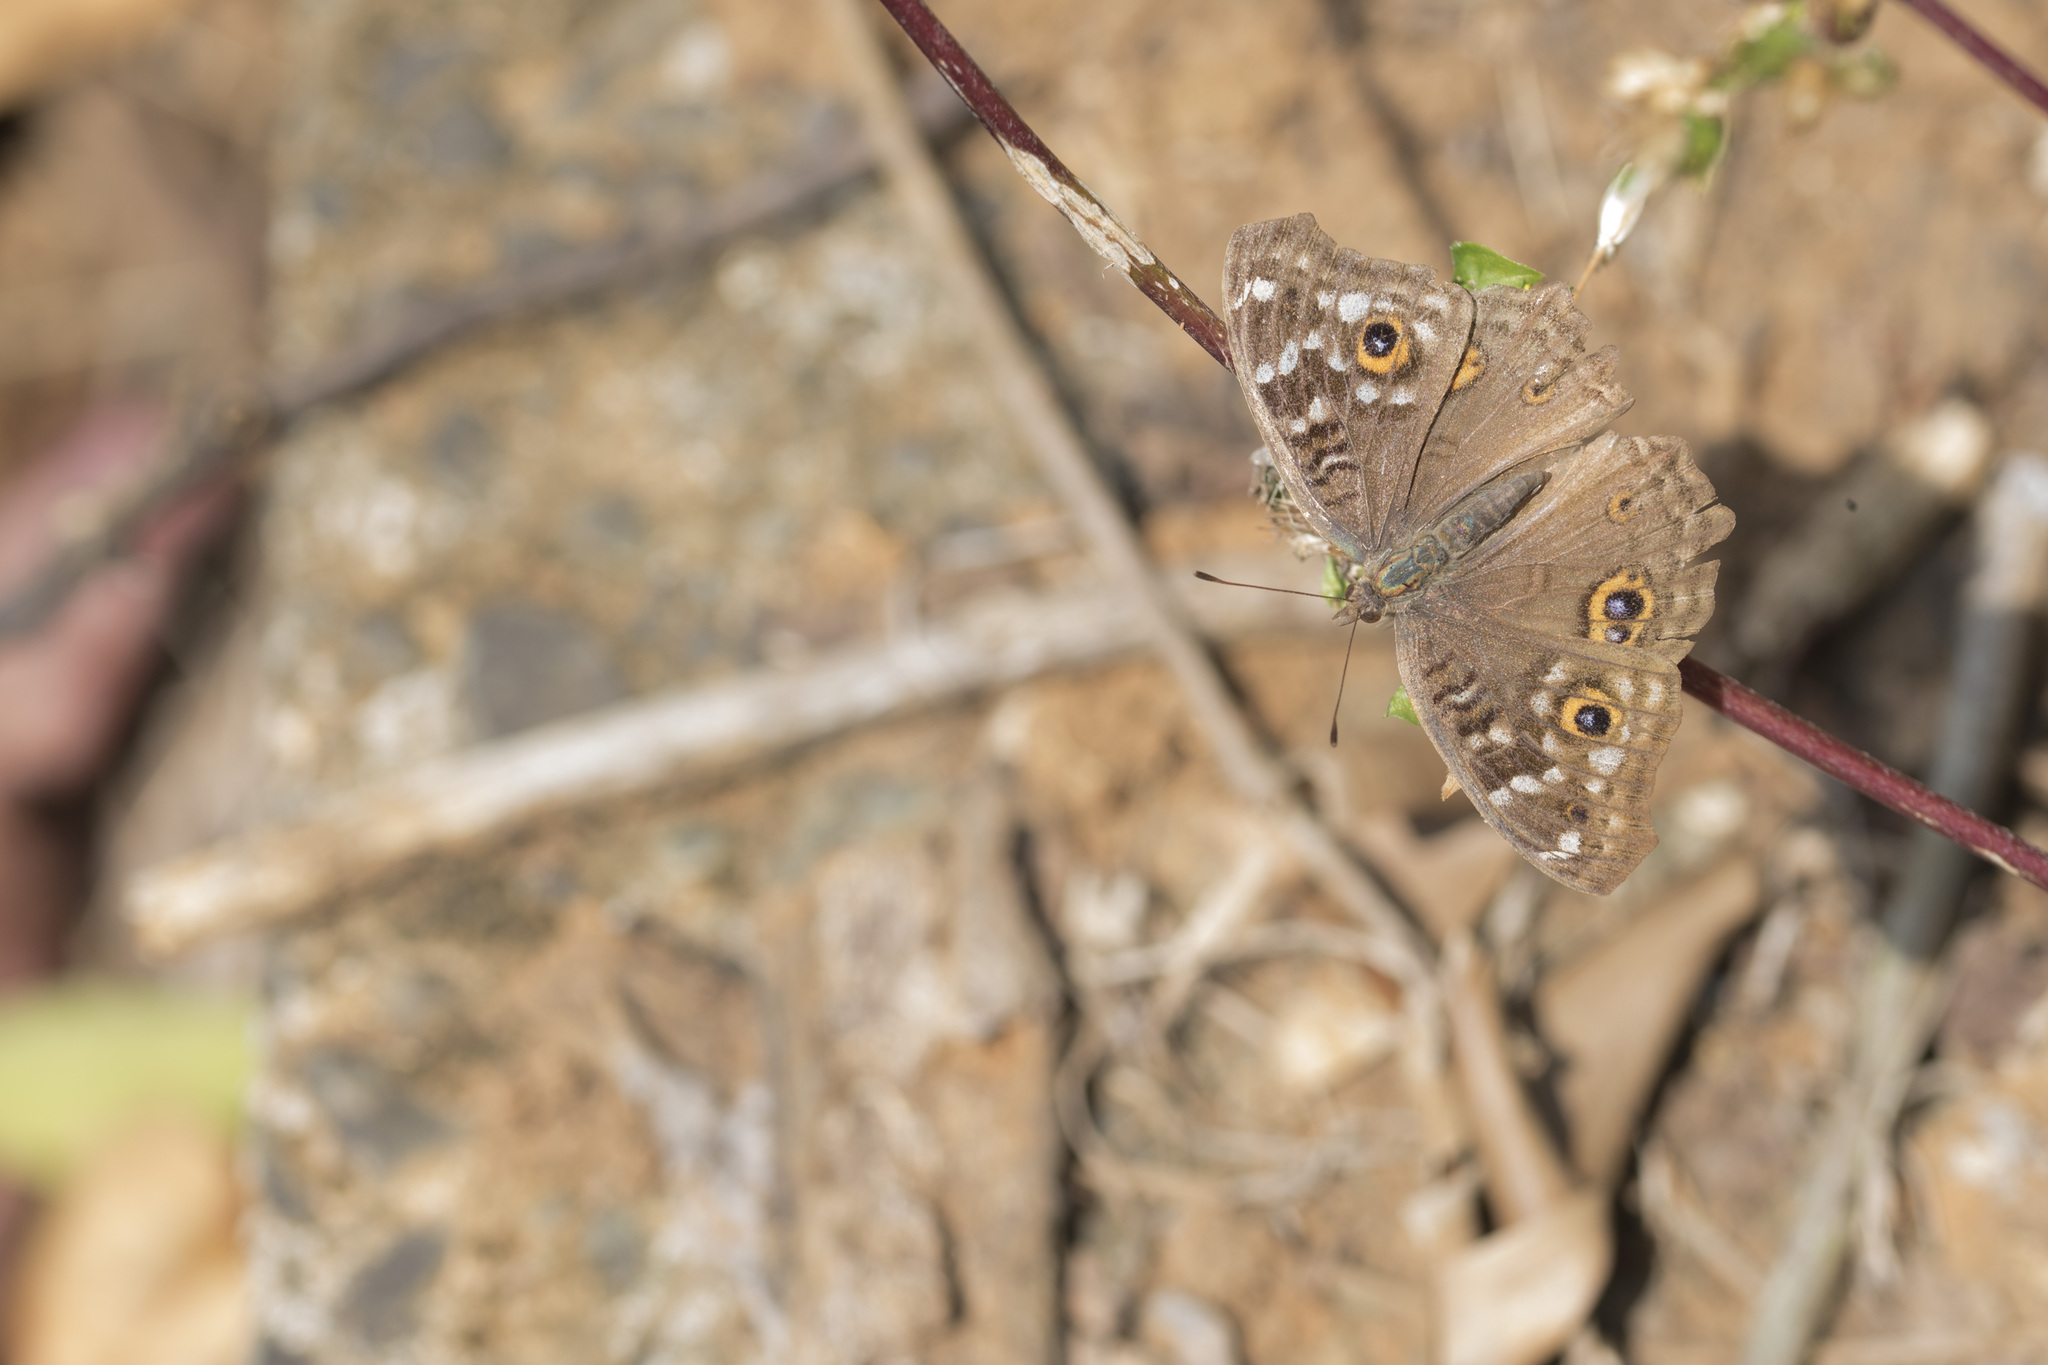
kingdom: Animalia
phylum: Arthropoda
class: Insecta
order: Lepidoptera
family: Nymphalidae
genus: Junonia
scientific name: Junonia lemonias
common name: Lemon pansy
